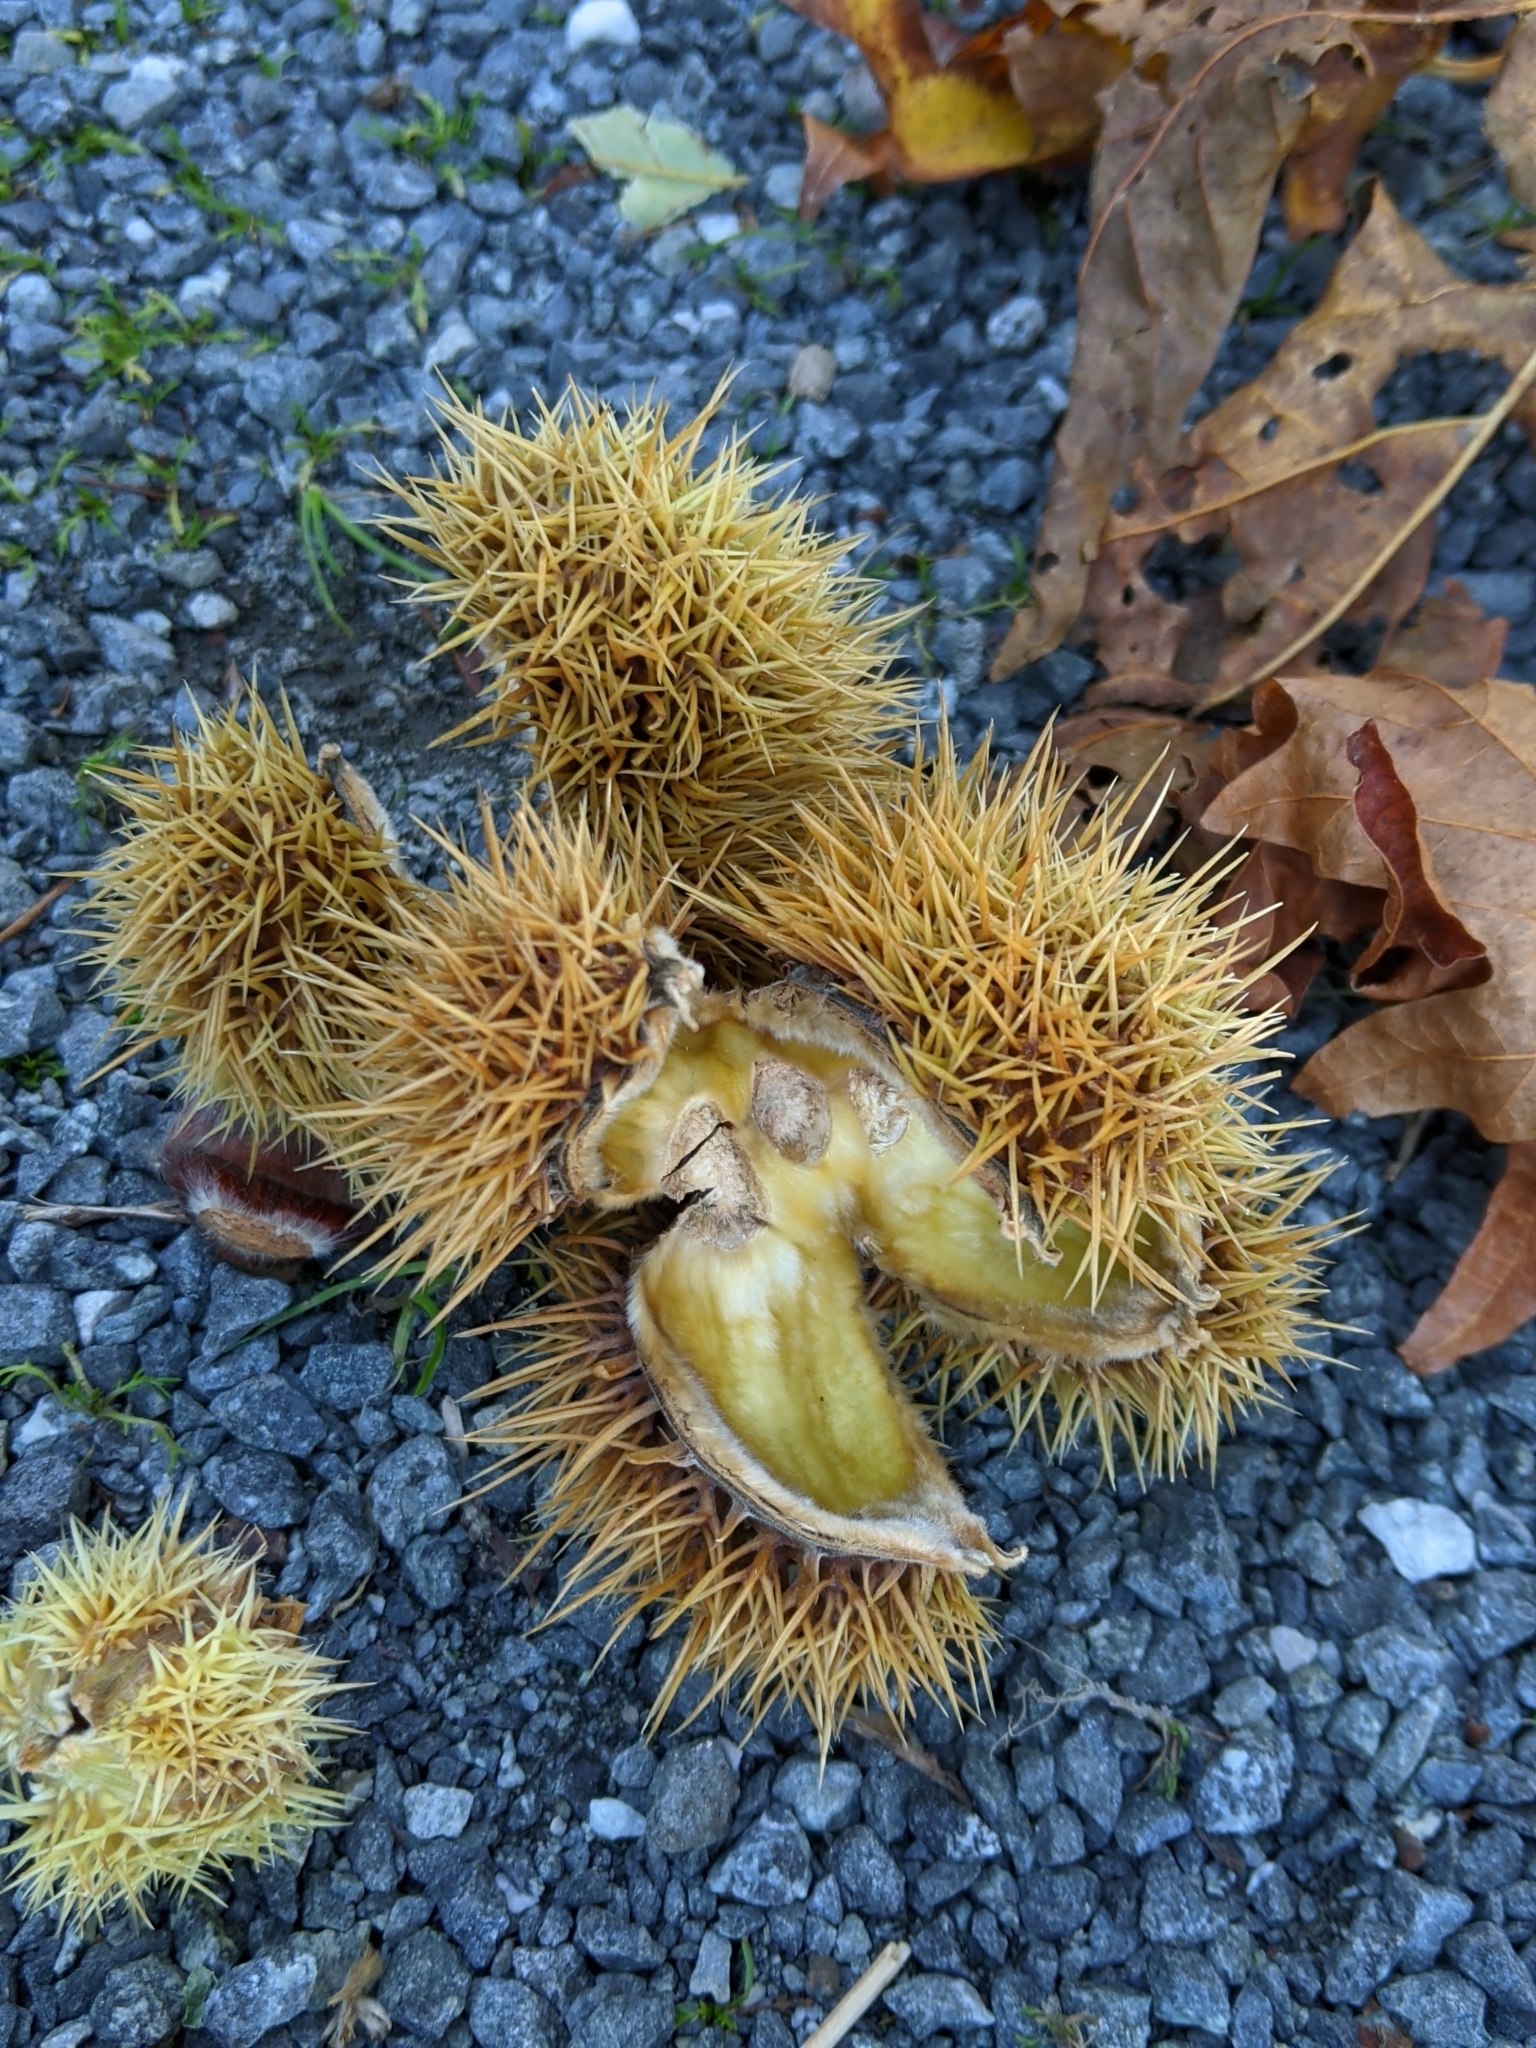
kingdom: Plantae
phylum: Tracheophyta
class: Magnoliopsida
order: Fagales
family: Fagaceae
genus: Castanea
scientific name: Castanea sativa
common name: Sweet chestnut
